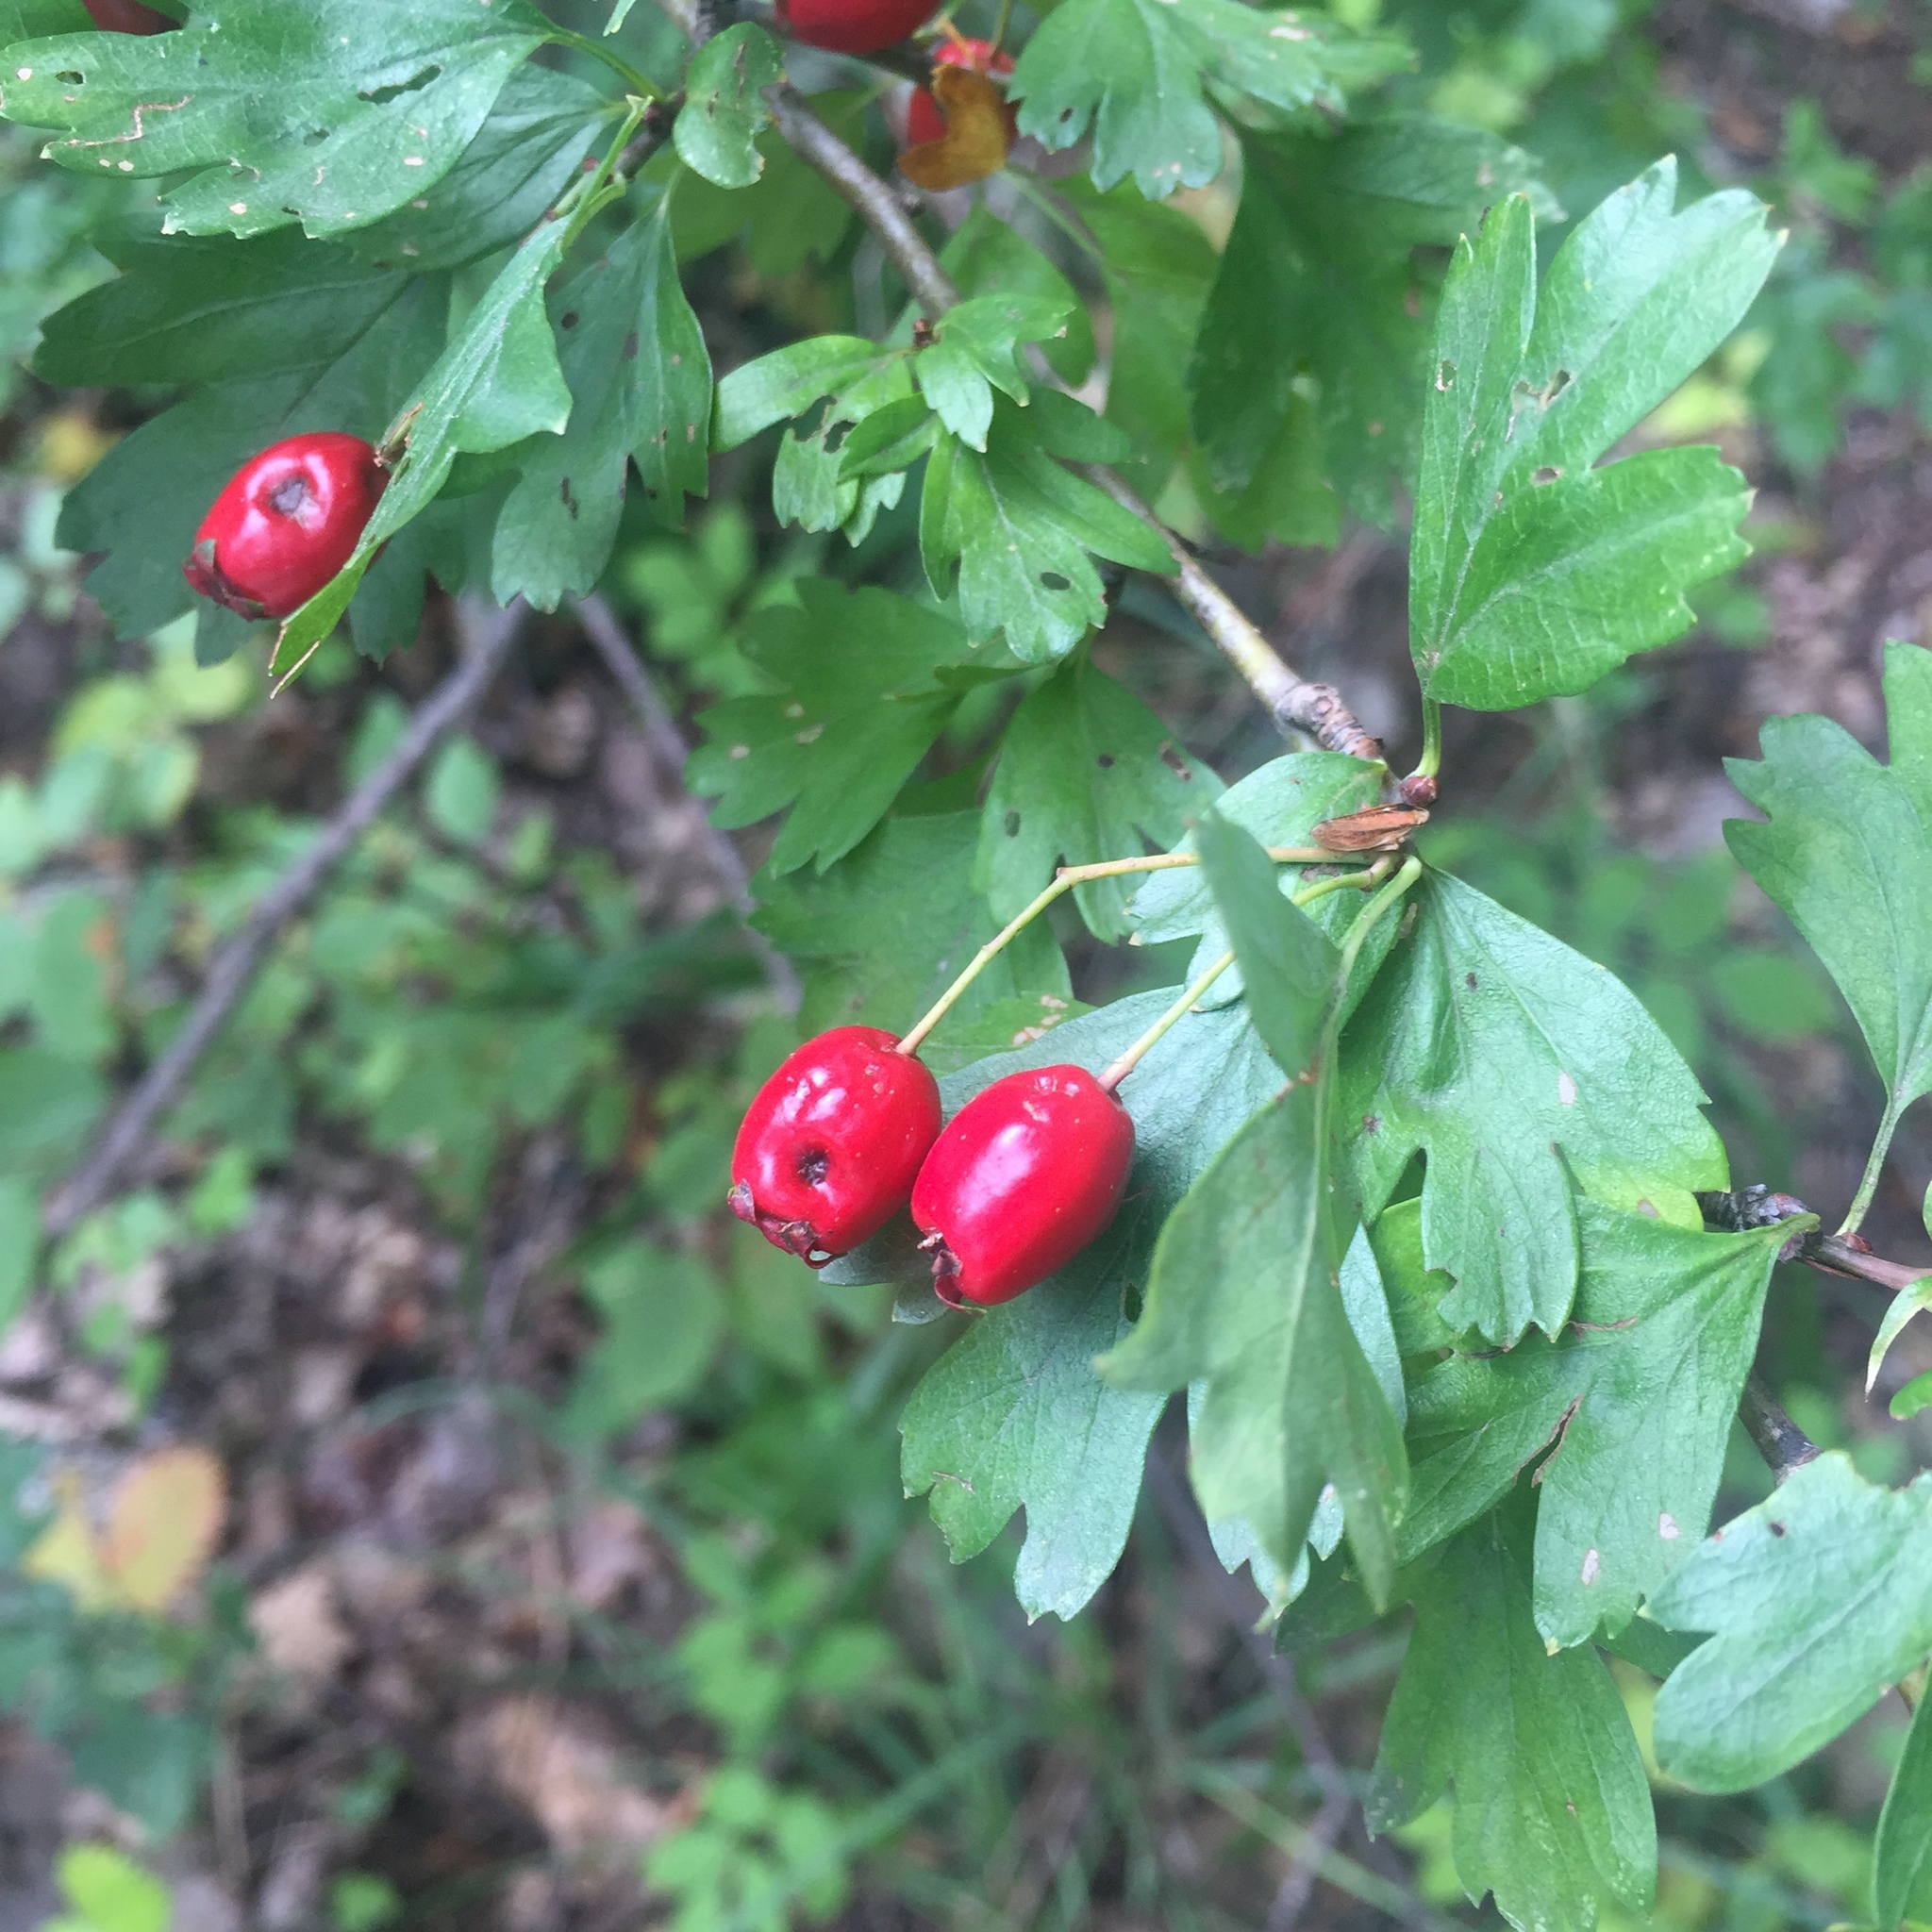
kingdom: Plantae
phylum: Tracheophyta
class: Magnoliopsida
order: Rosales
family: Rosaceae
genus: Crataegus
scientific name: Crataegus monogyna
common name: Hawthorn
